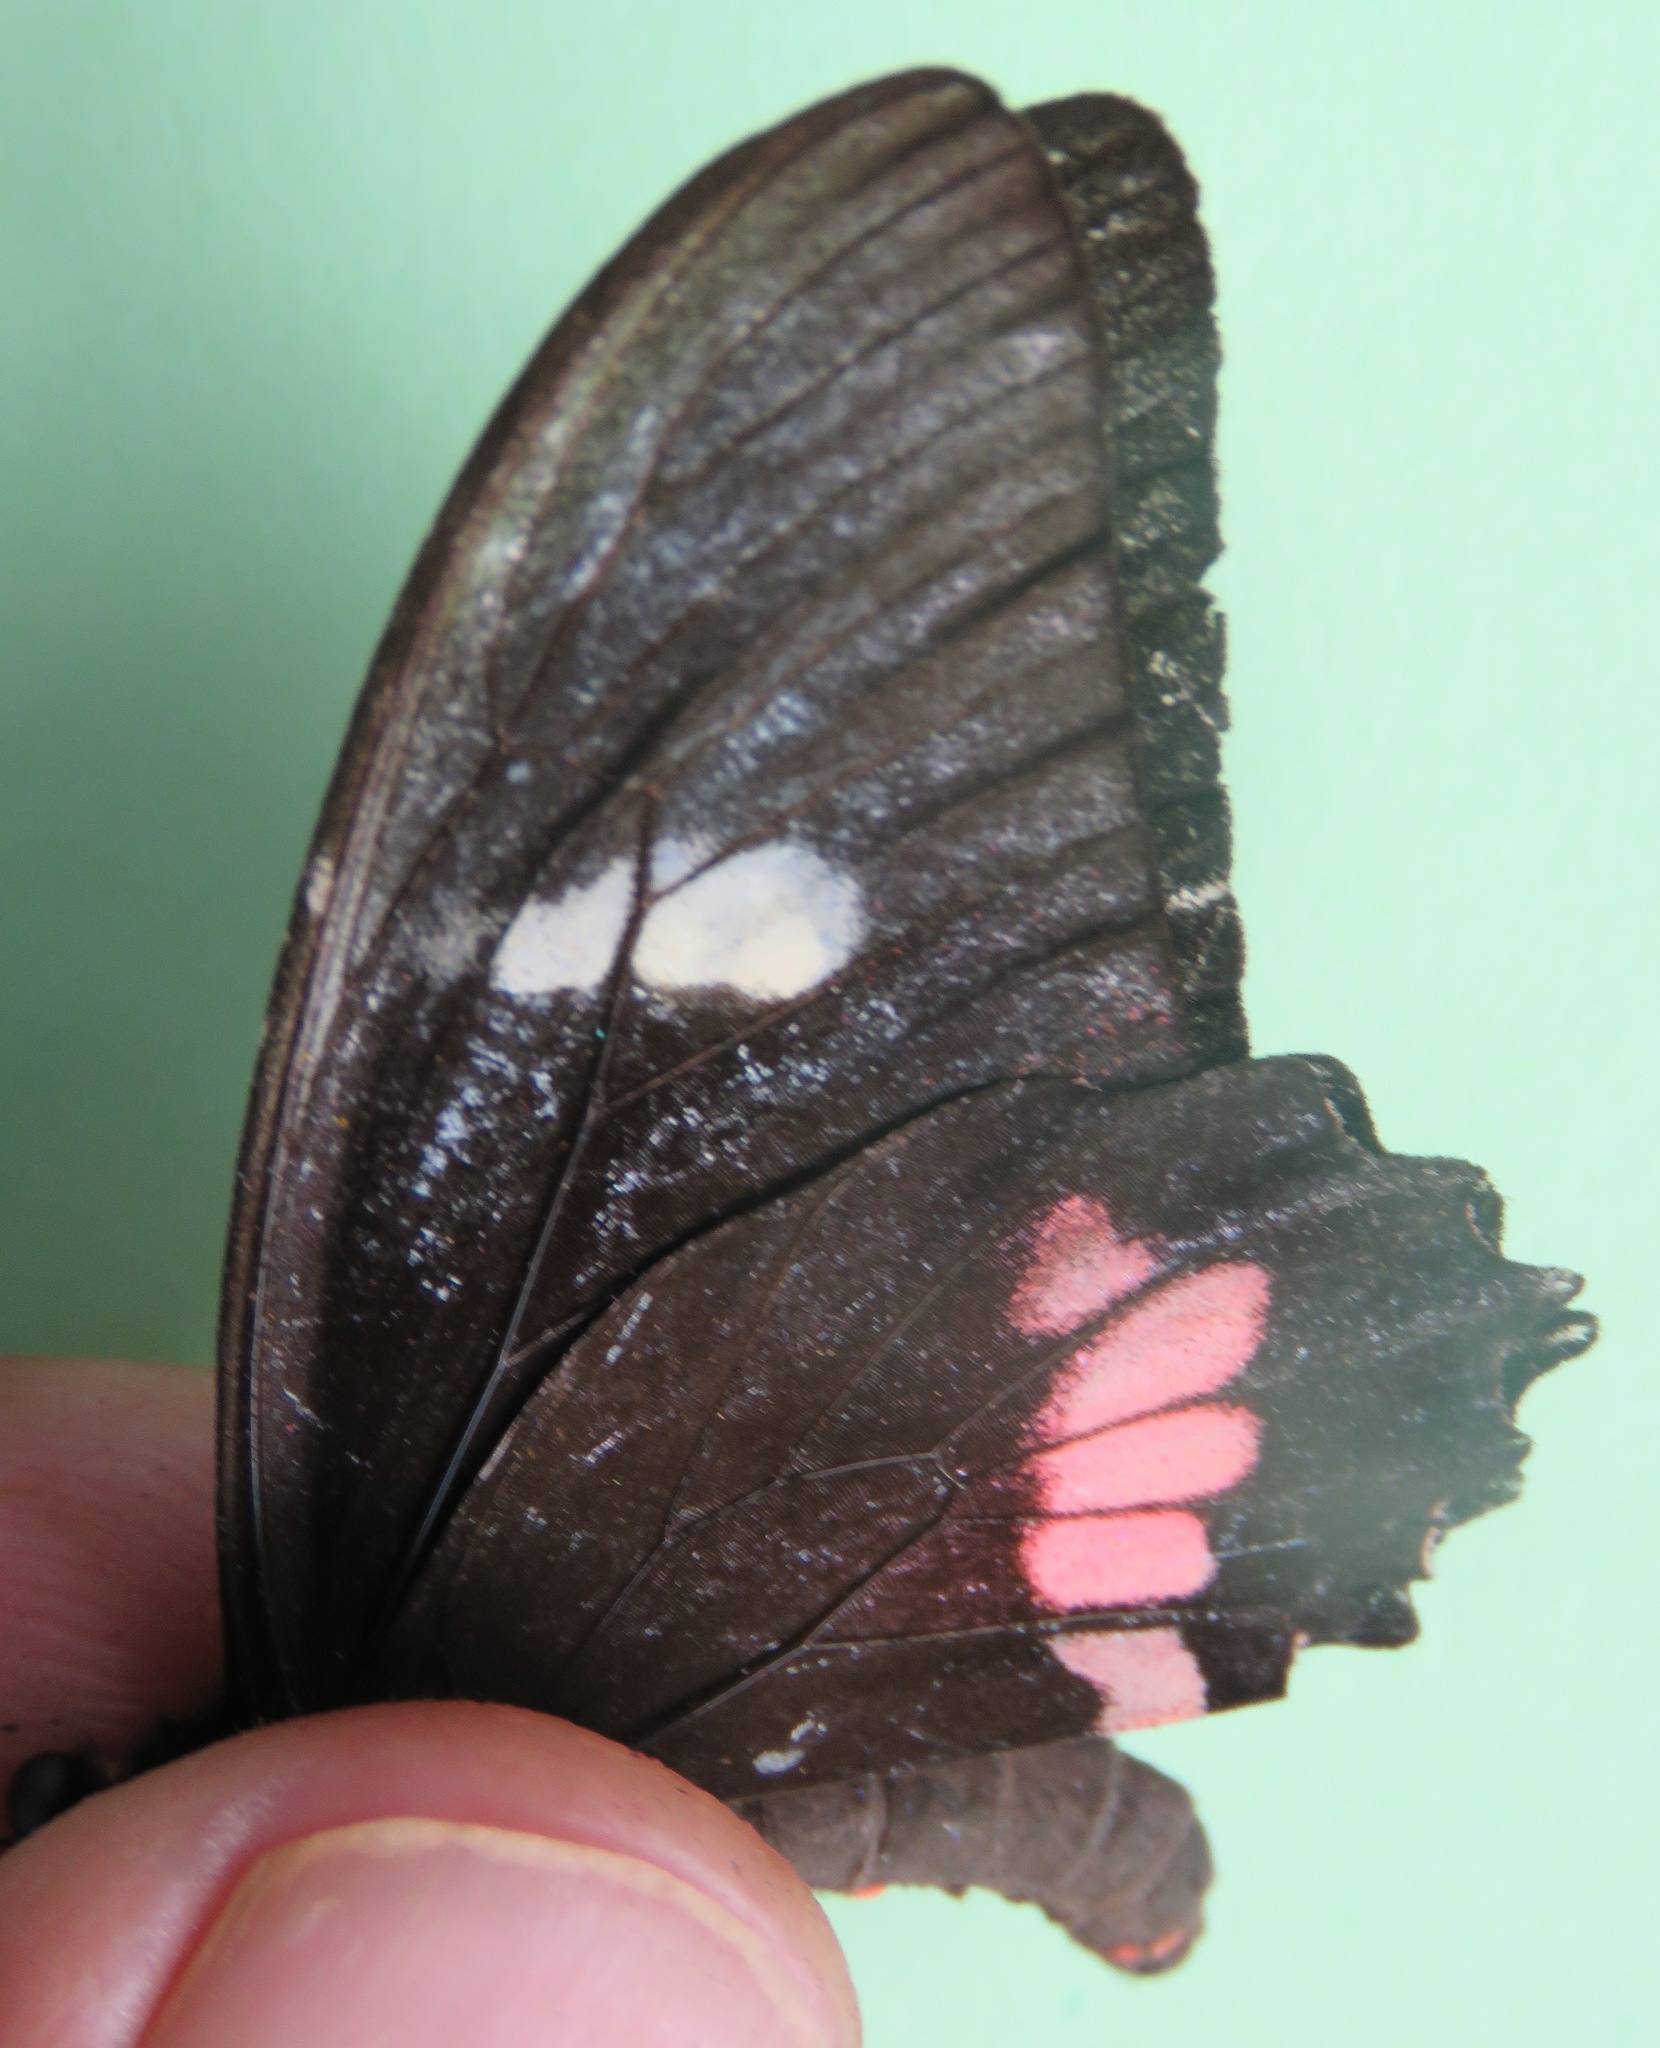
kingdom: Animalia
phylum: Arthropoda
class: Insecta
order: Lepidoptera
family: Papilionidae
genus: Parides
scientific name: Parides eurimedes
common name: True cattleheart
